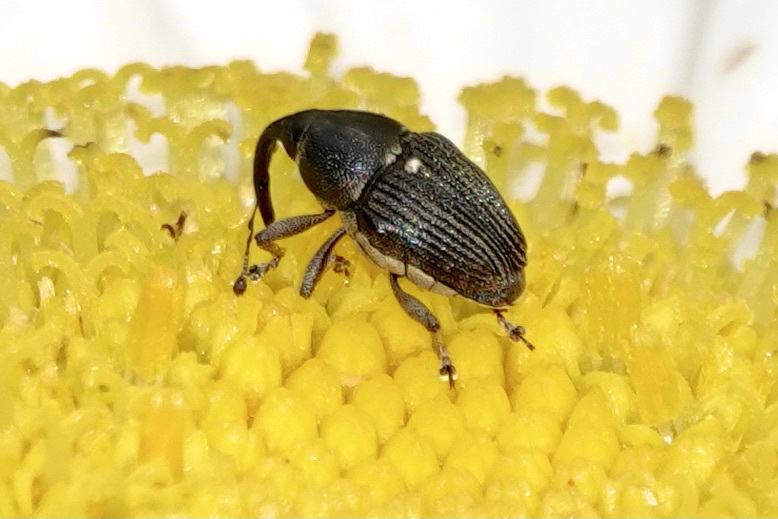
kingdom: Animalia
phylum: Arthropoda
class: Insecta
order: Coleoptera
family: Curculionidae
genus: Odontocorynus
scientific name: Odontocorynus umbellae
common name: Daisy flower weevil
